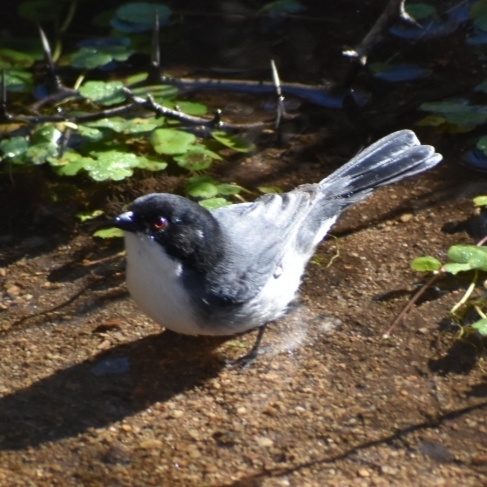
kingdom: Animalia
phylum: Chordata
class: Aves
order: Passeriformes
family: Thraupidae
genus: Microspingus
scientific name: Microspingus melanoleucus
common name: Black-capped warbling-finch
